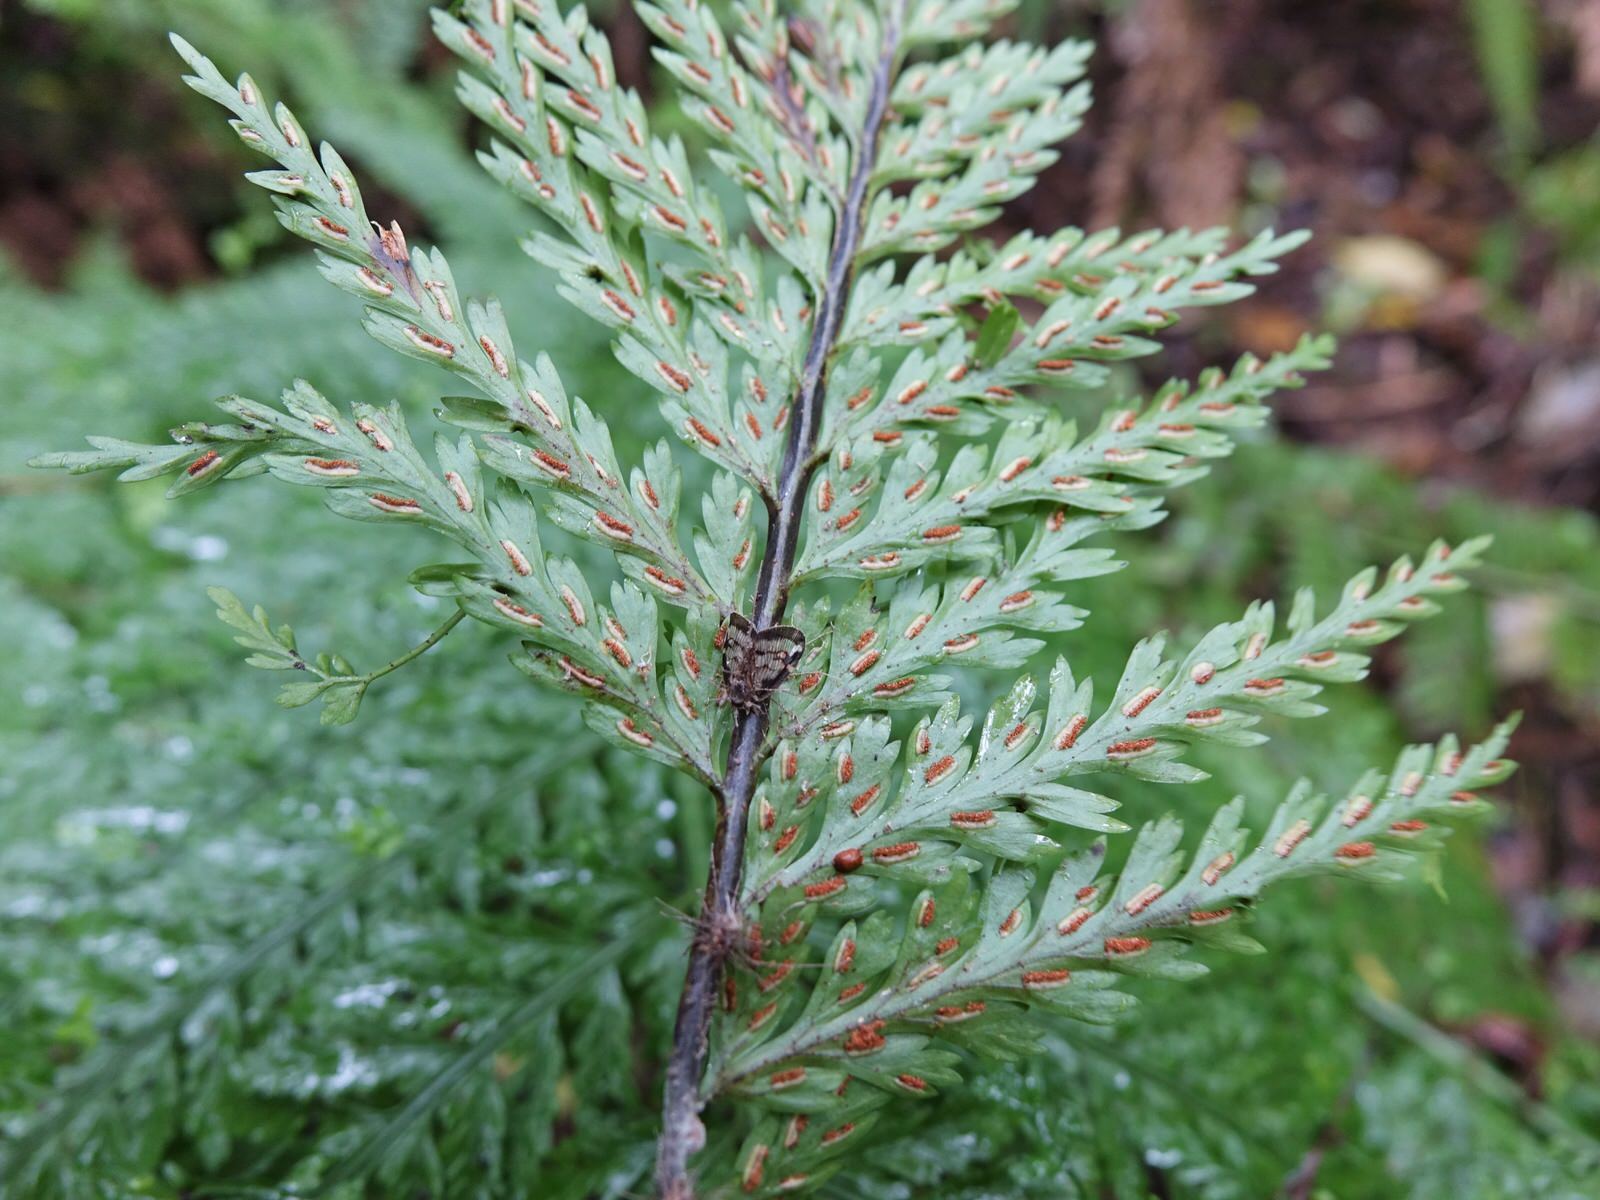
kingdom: Plantae
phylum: Tracheophyta
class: Polypodiopsida
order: Polypodiales
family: Aspleniaceae
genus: Asplenium
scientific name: Asplenium bulbiferum
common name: Mother fern
